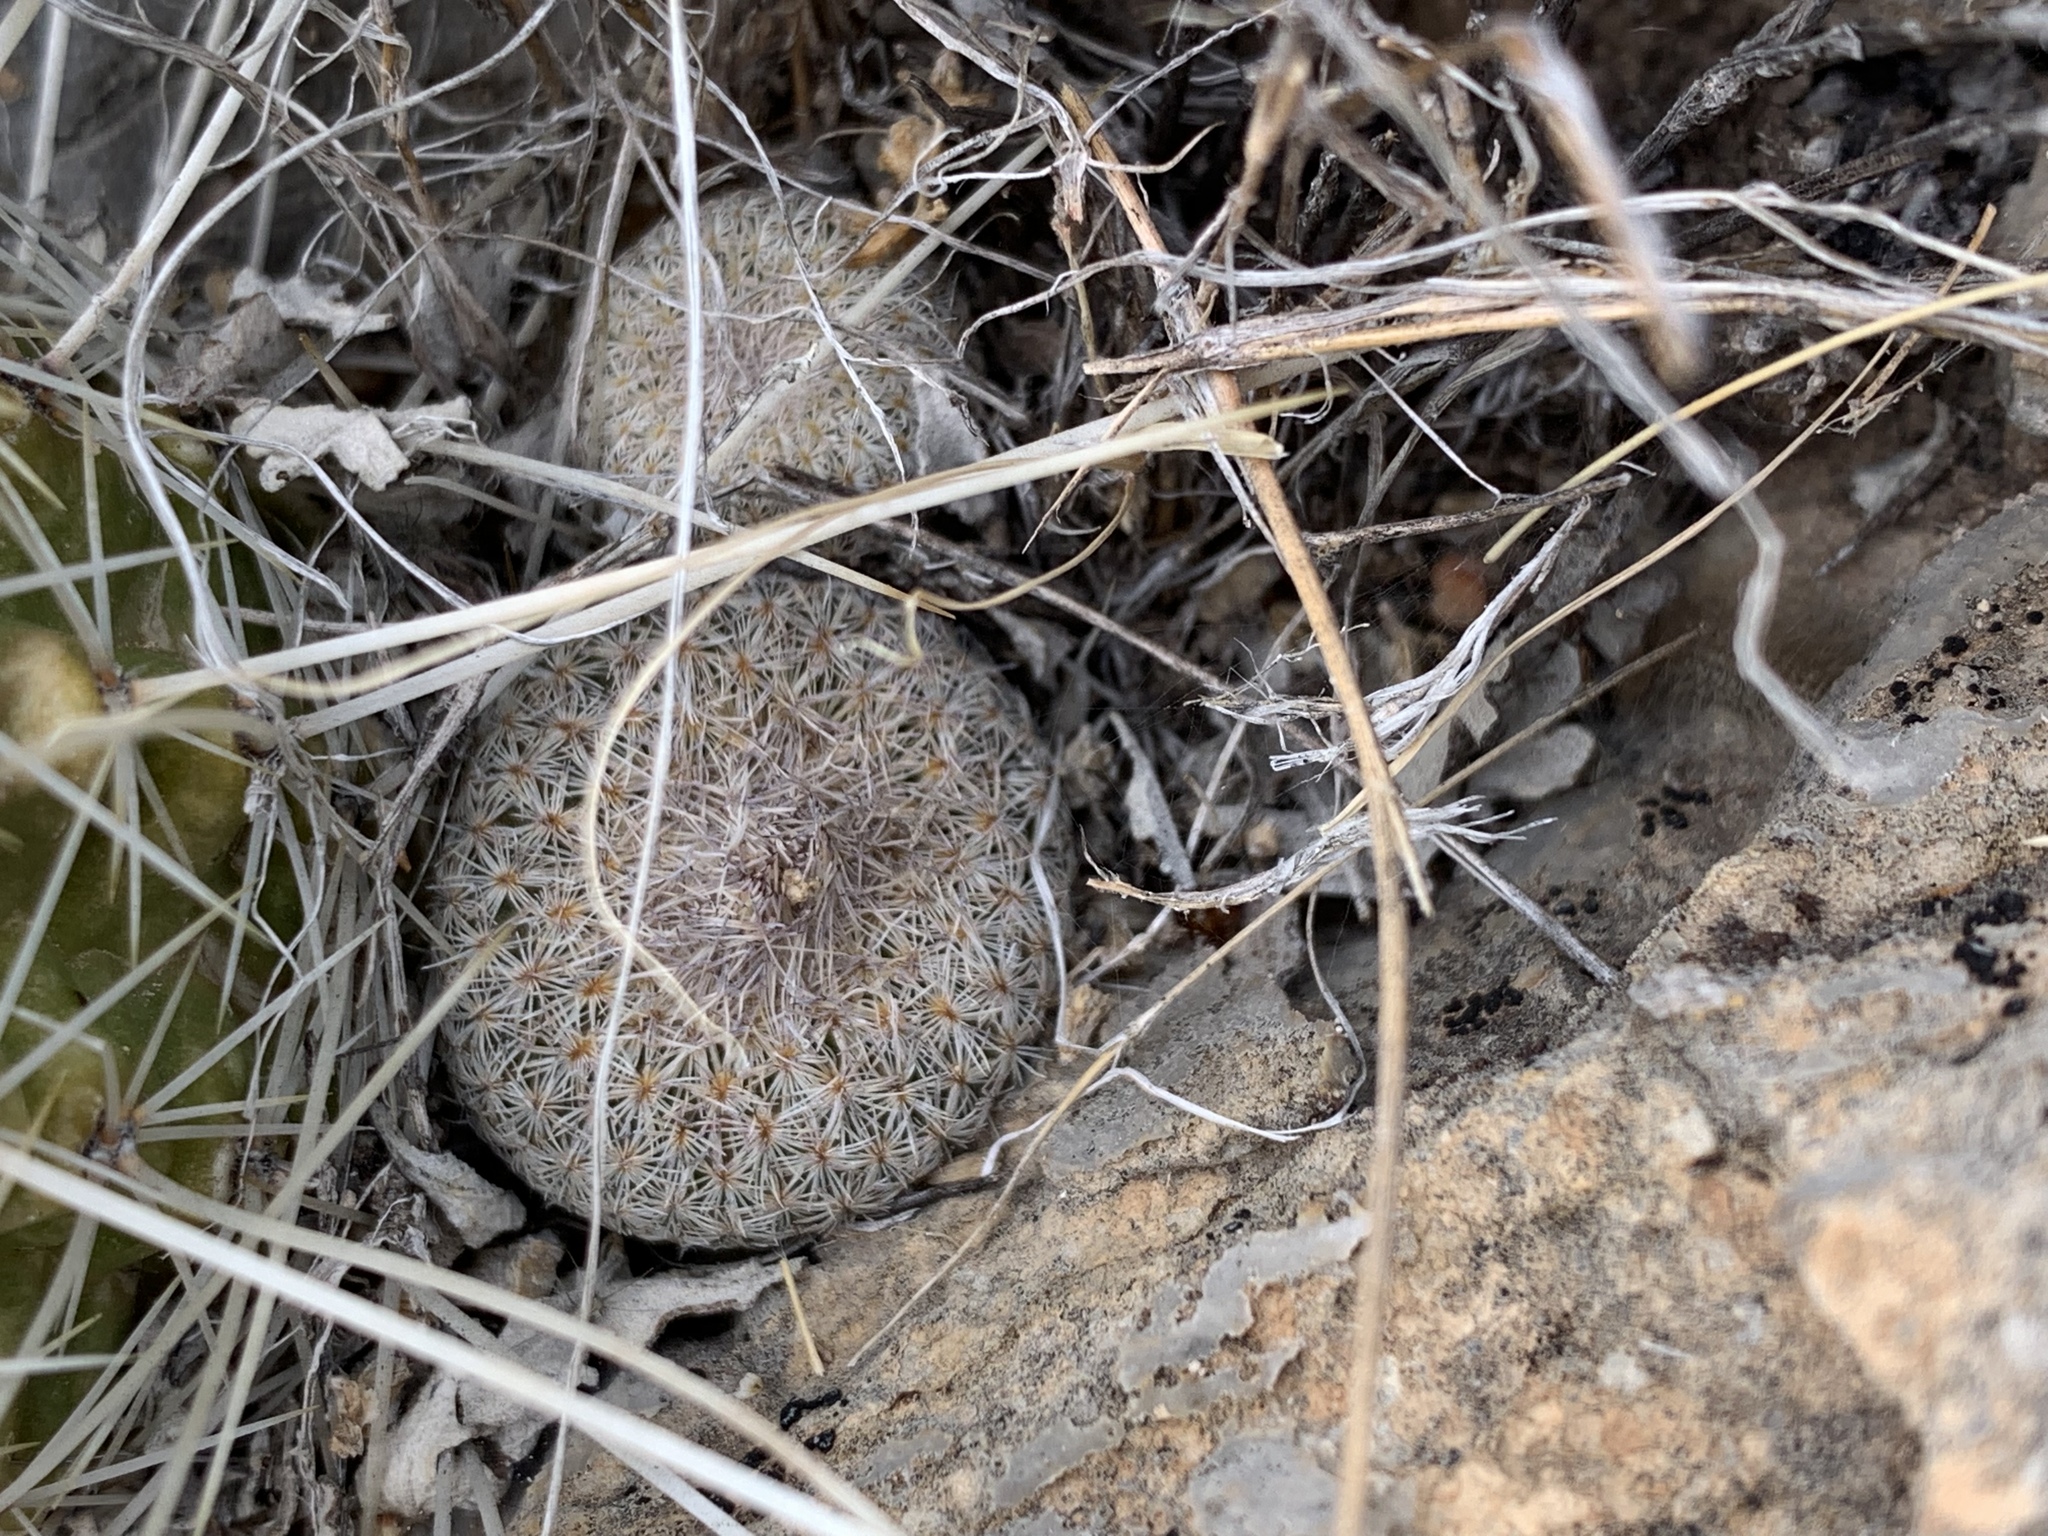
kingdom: Plantae
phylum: Tracheophyta
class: Magnoliopsida
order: Caryophyllales
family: Cactaceae
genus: Epithelantha
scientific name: Epithelantha micromeris
